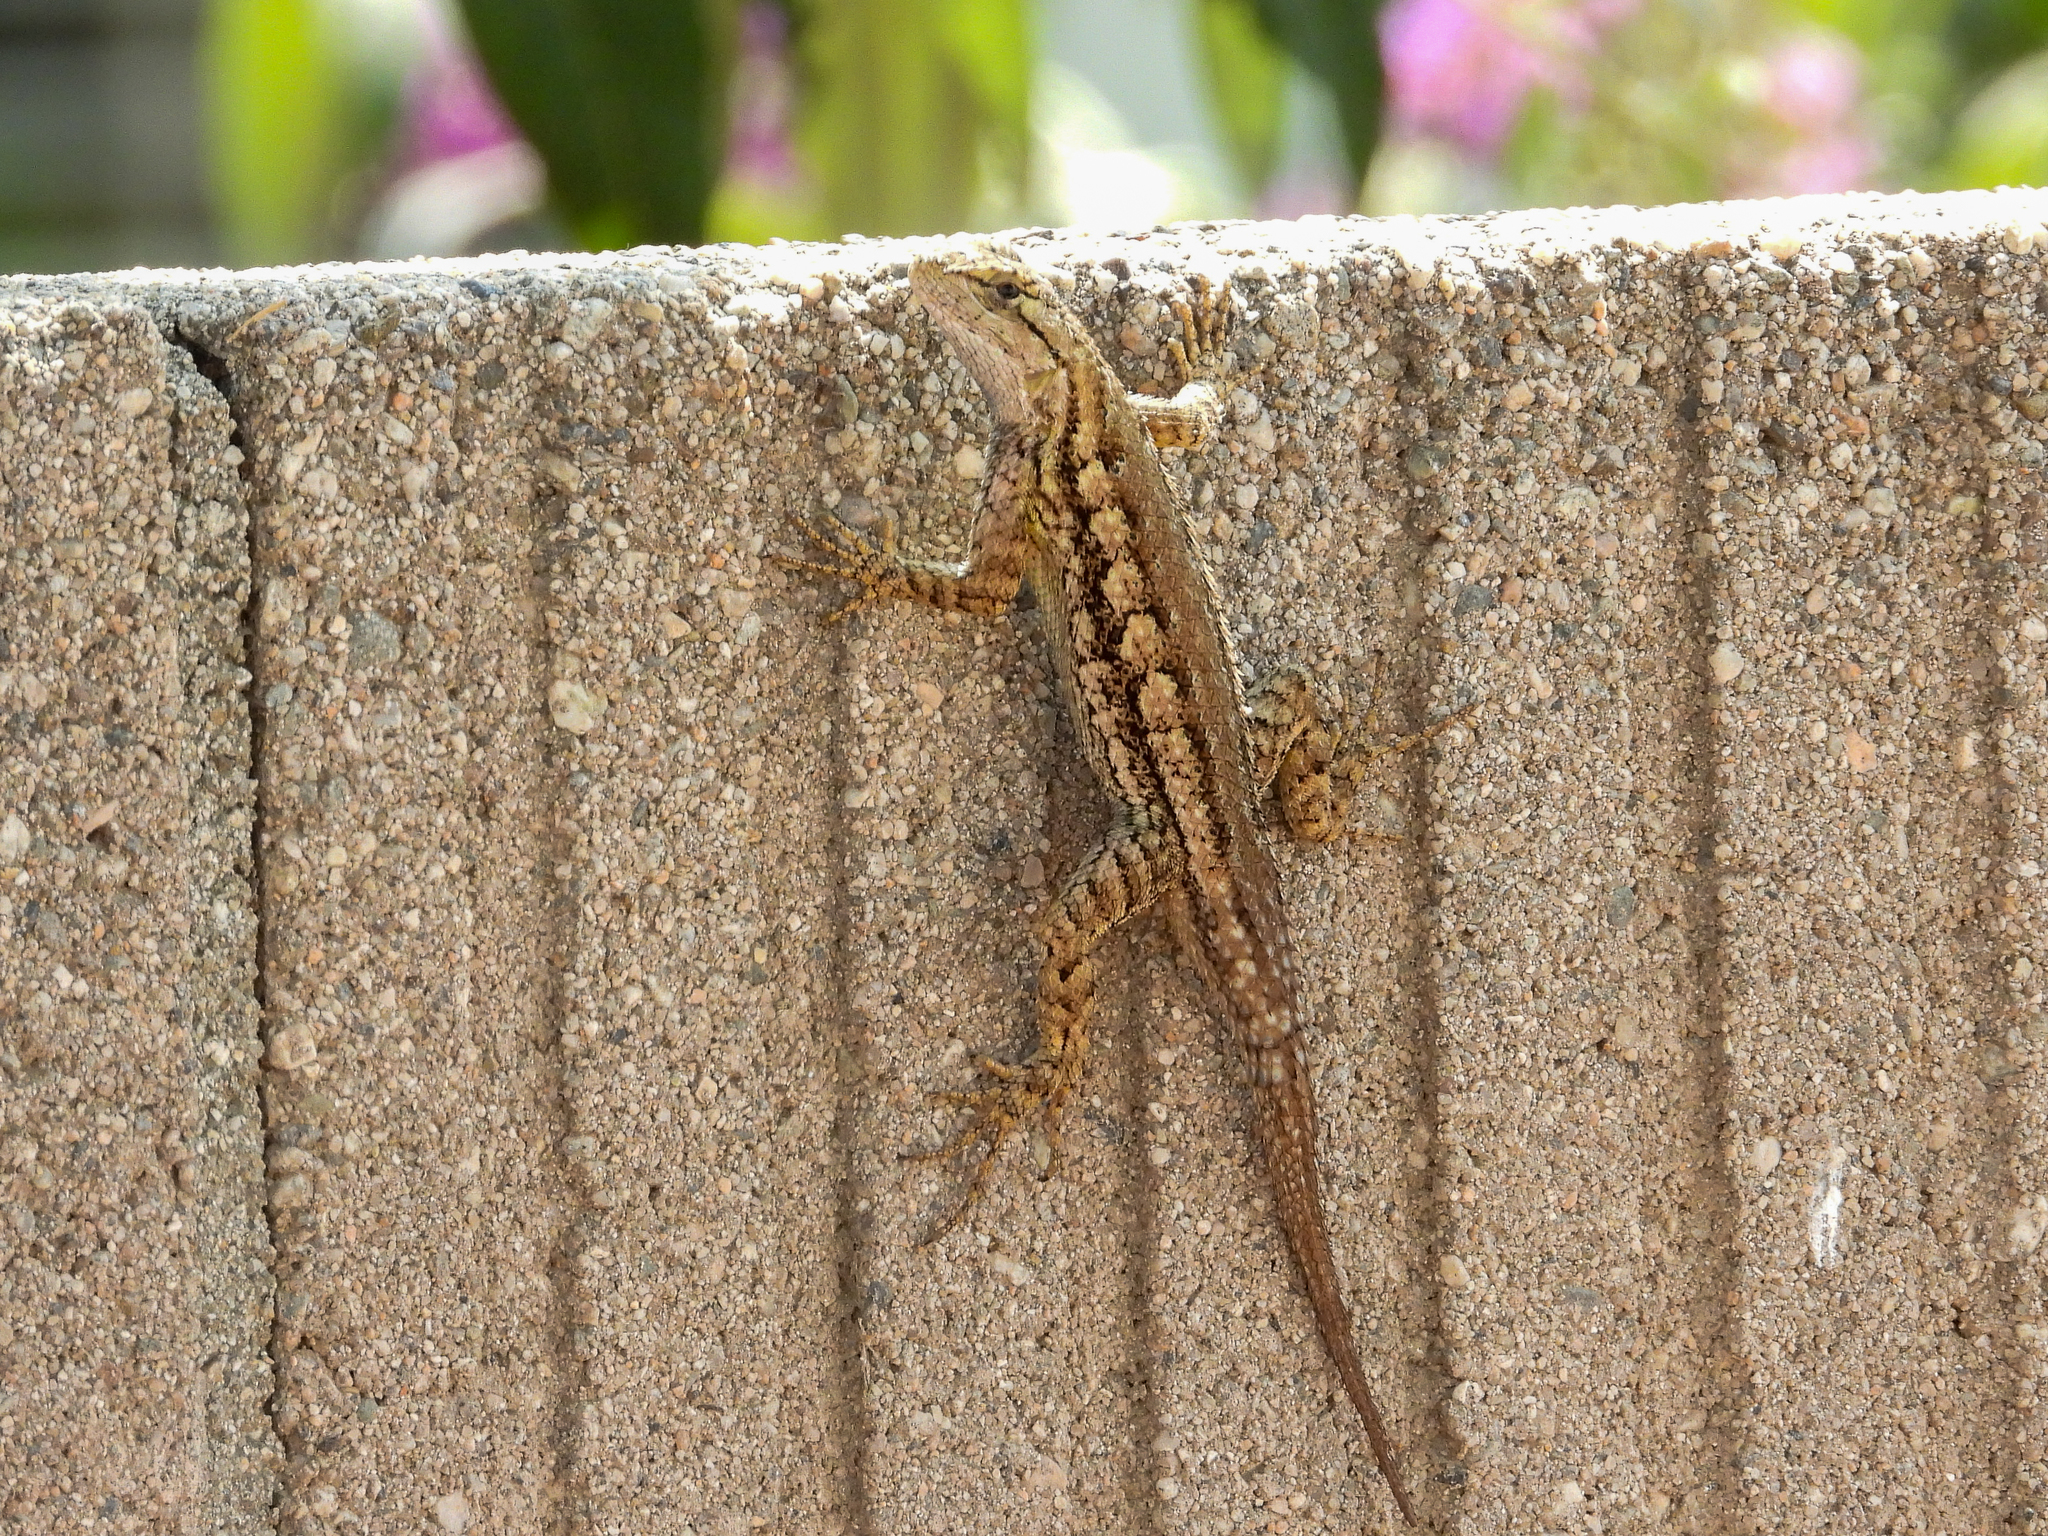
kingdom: Animalia
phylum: Chordata
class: Squamata
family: Phrynosomatidae
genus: Sceloporus
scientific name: Sceloporus occidentalis
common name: Western fence lizard
